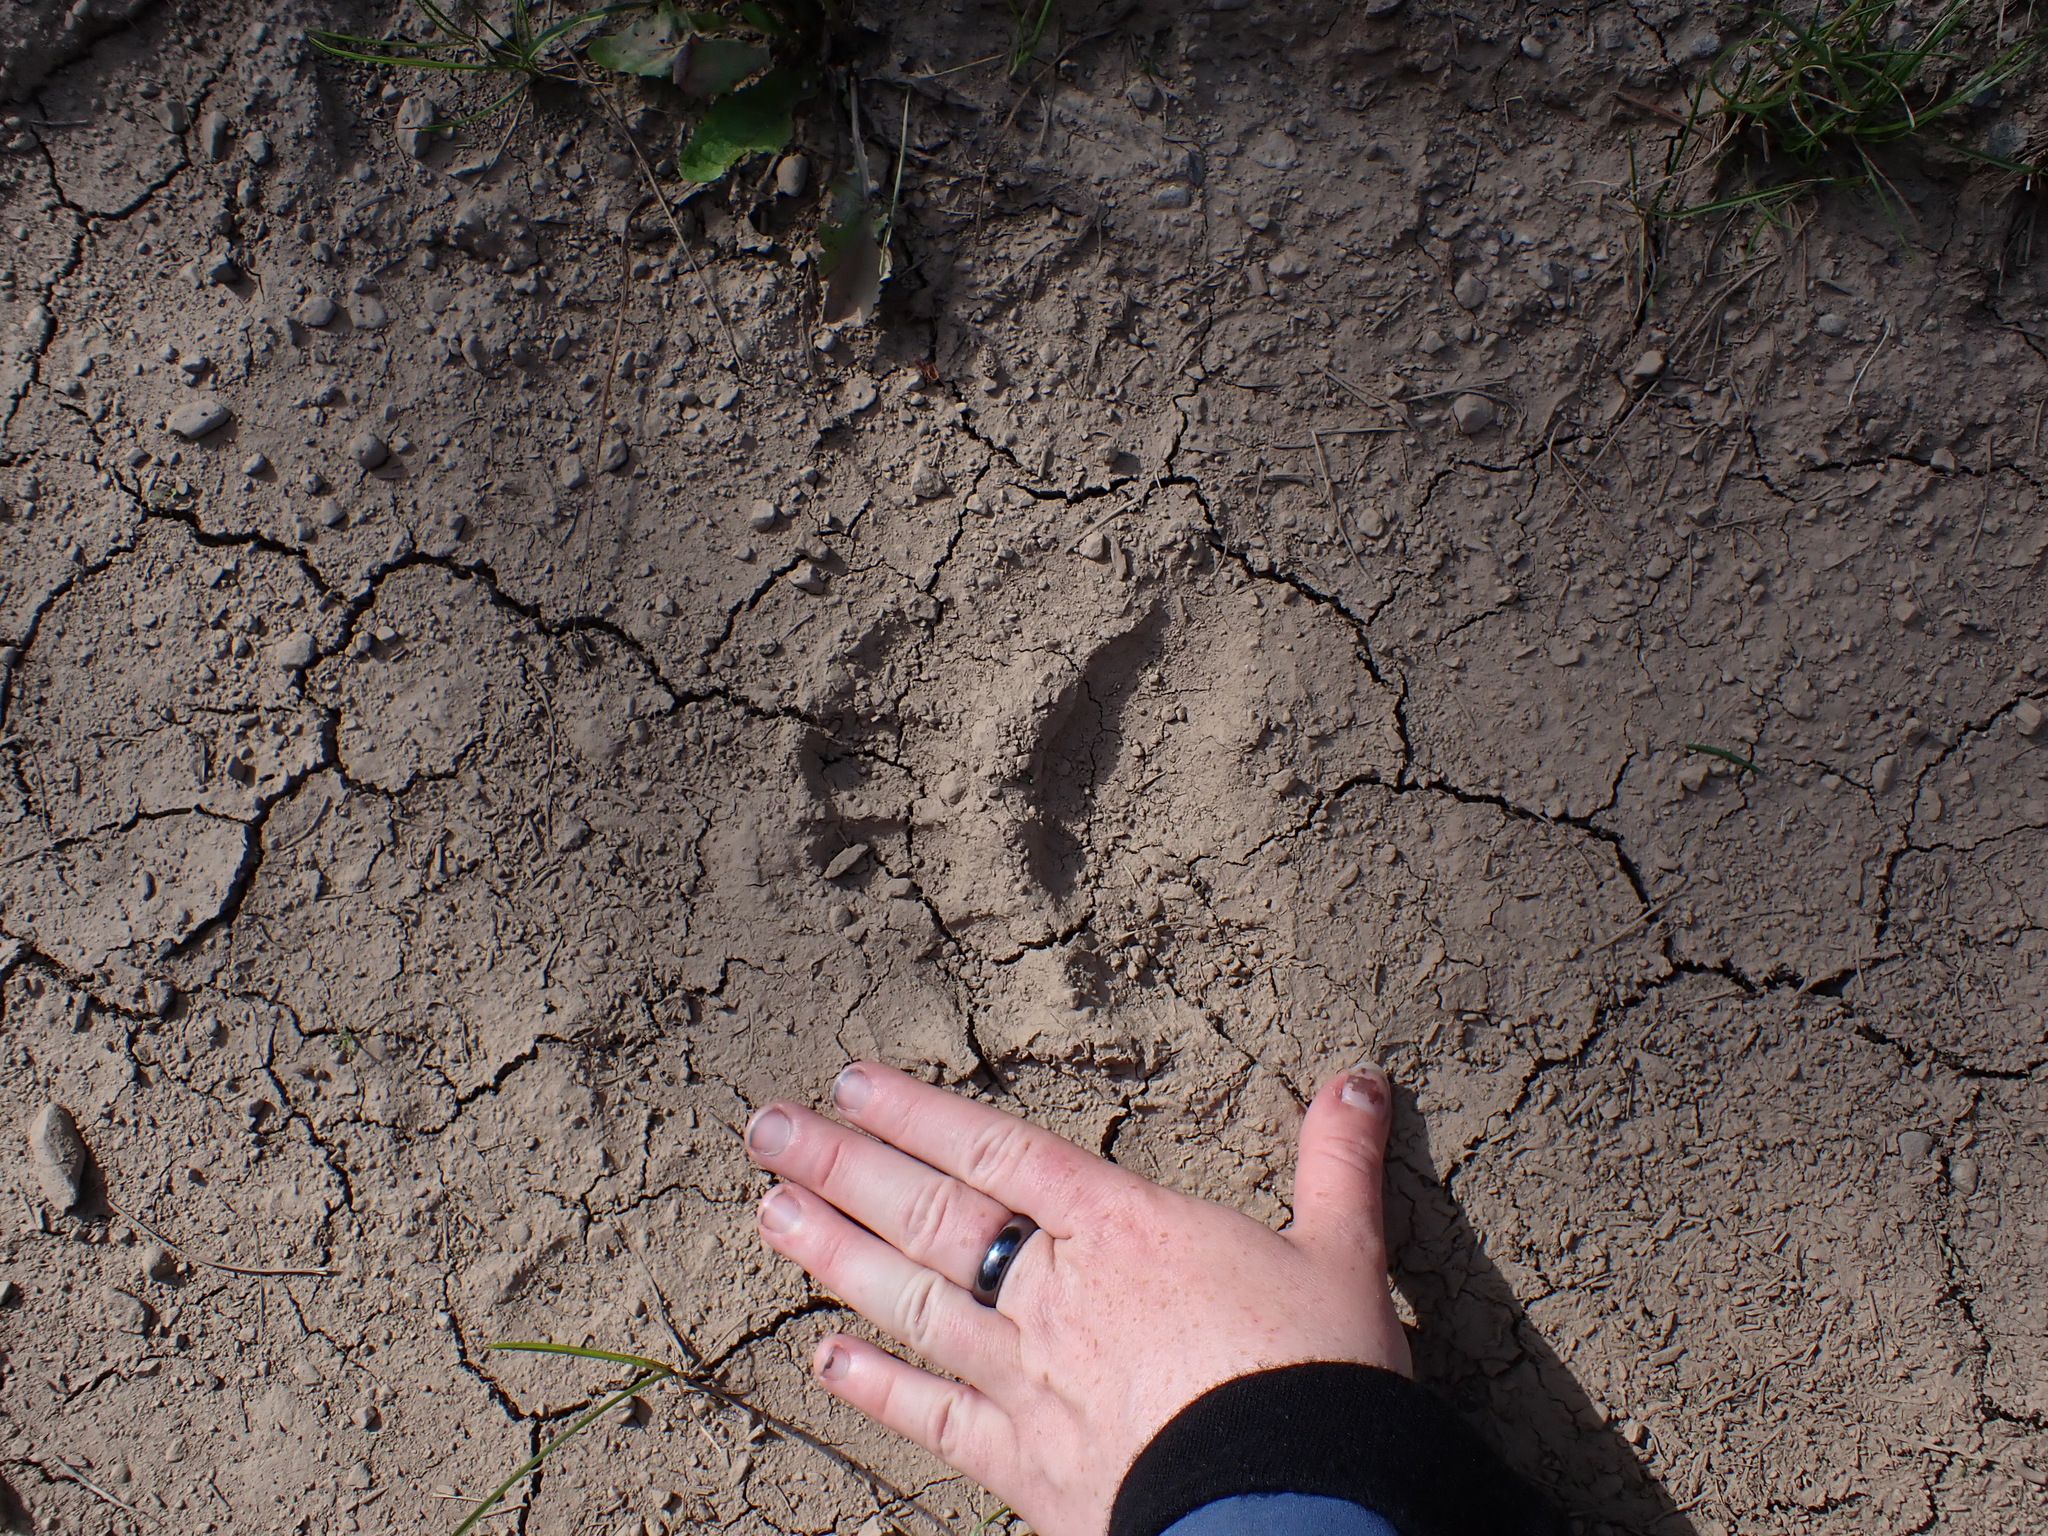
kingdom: Animalia
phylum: Chordata
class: Mammalia
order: Carnivora
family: Ursidae
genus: Ursus
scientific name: Ursus americanus
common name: American black bear
